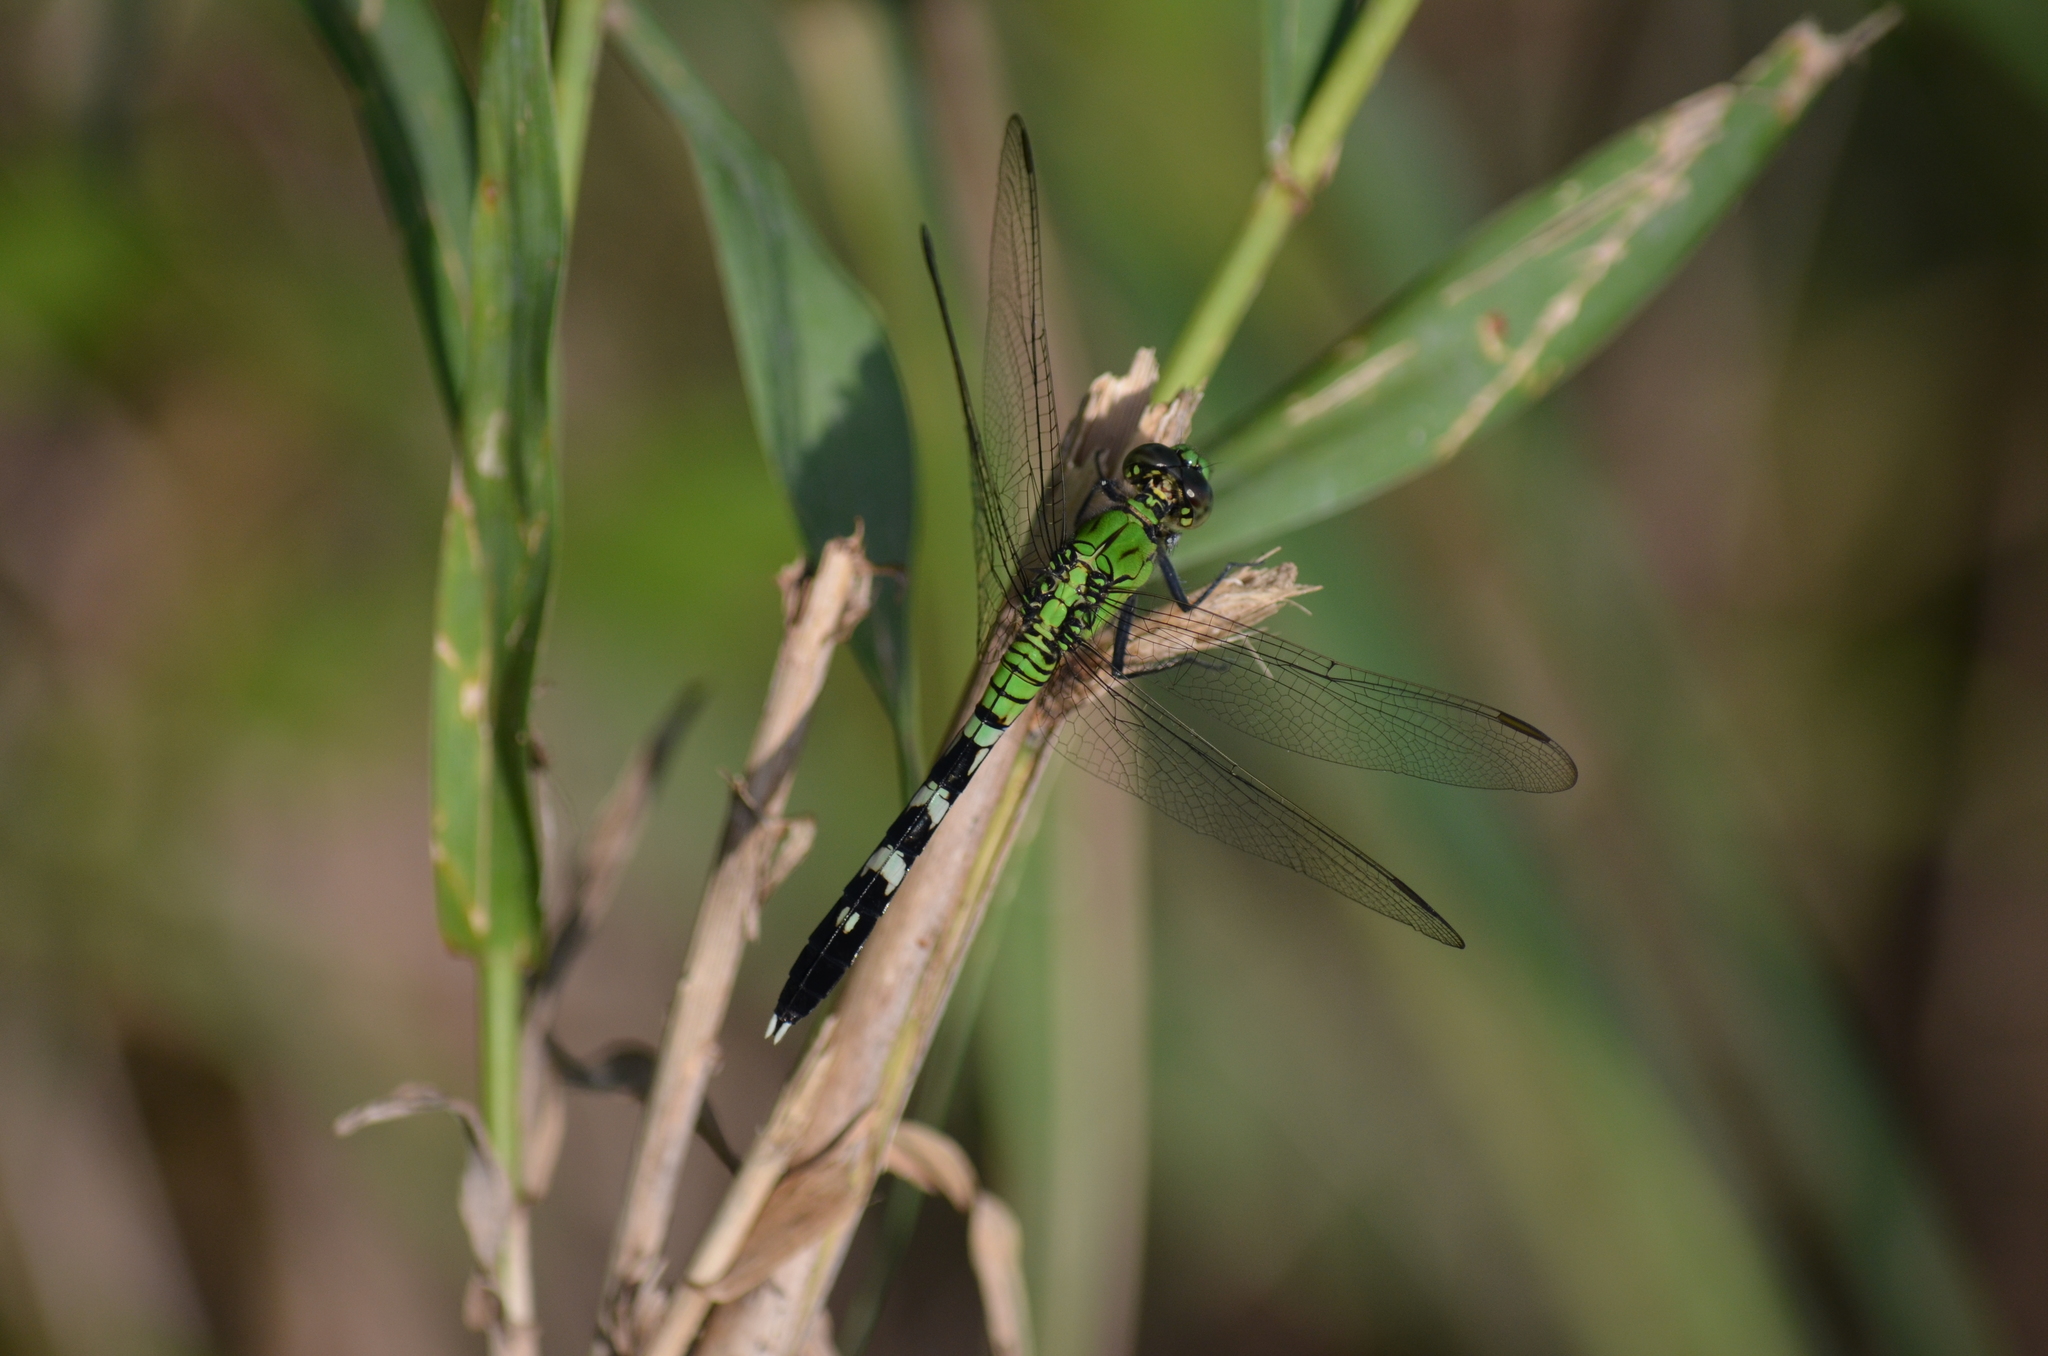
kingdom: Animalia
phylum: Arthropoda
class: Insecta
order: Odonata
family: Libellulidae
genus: Erythemis
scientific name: Erythemis simplicicollis
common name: Eastern pondhawk
